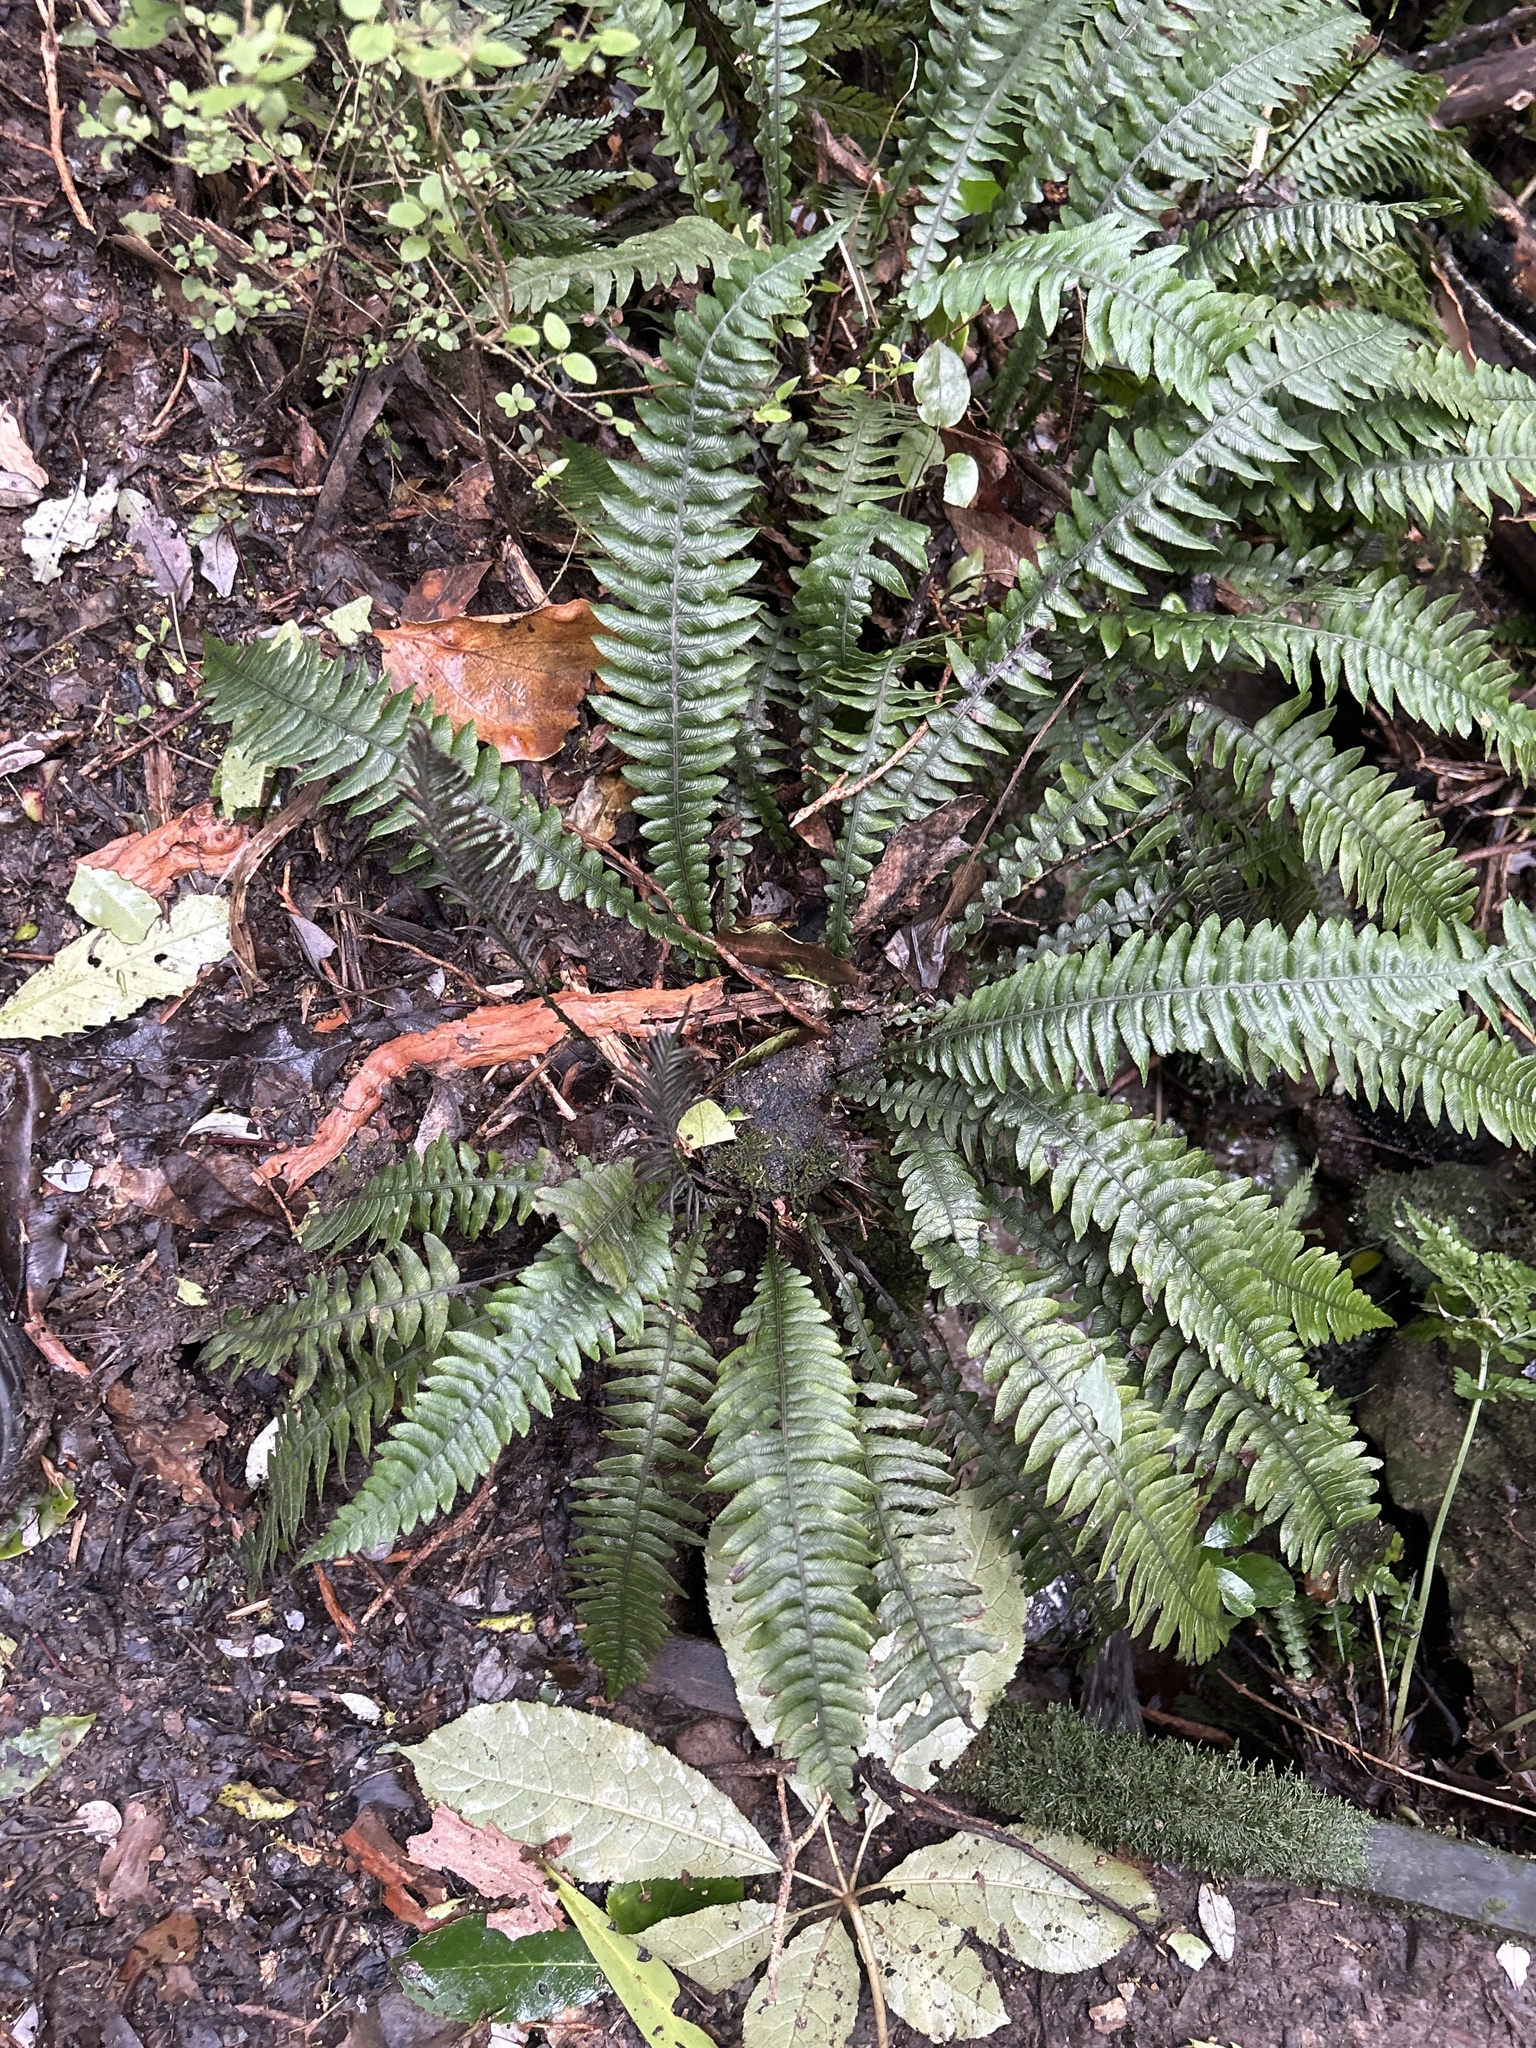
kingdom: Plantae
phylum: Tracheophyta
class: Polypodiopsida
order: Polypodiales
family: Blechnaceae
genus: Austroblechnum
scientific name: Austroblechnum lanceolatum
